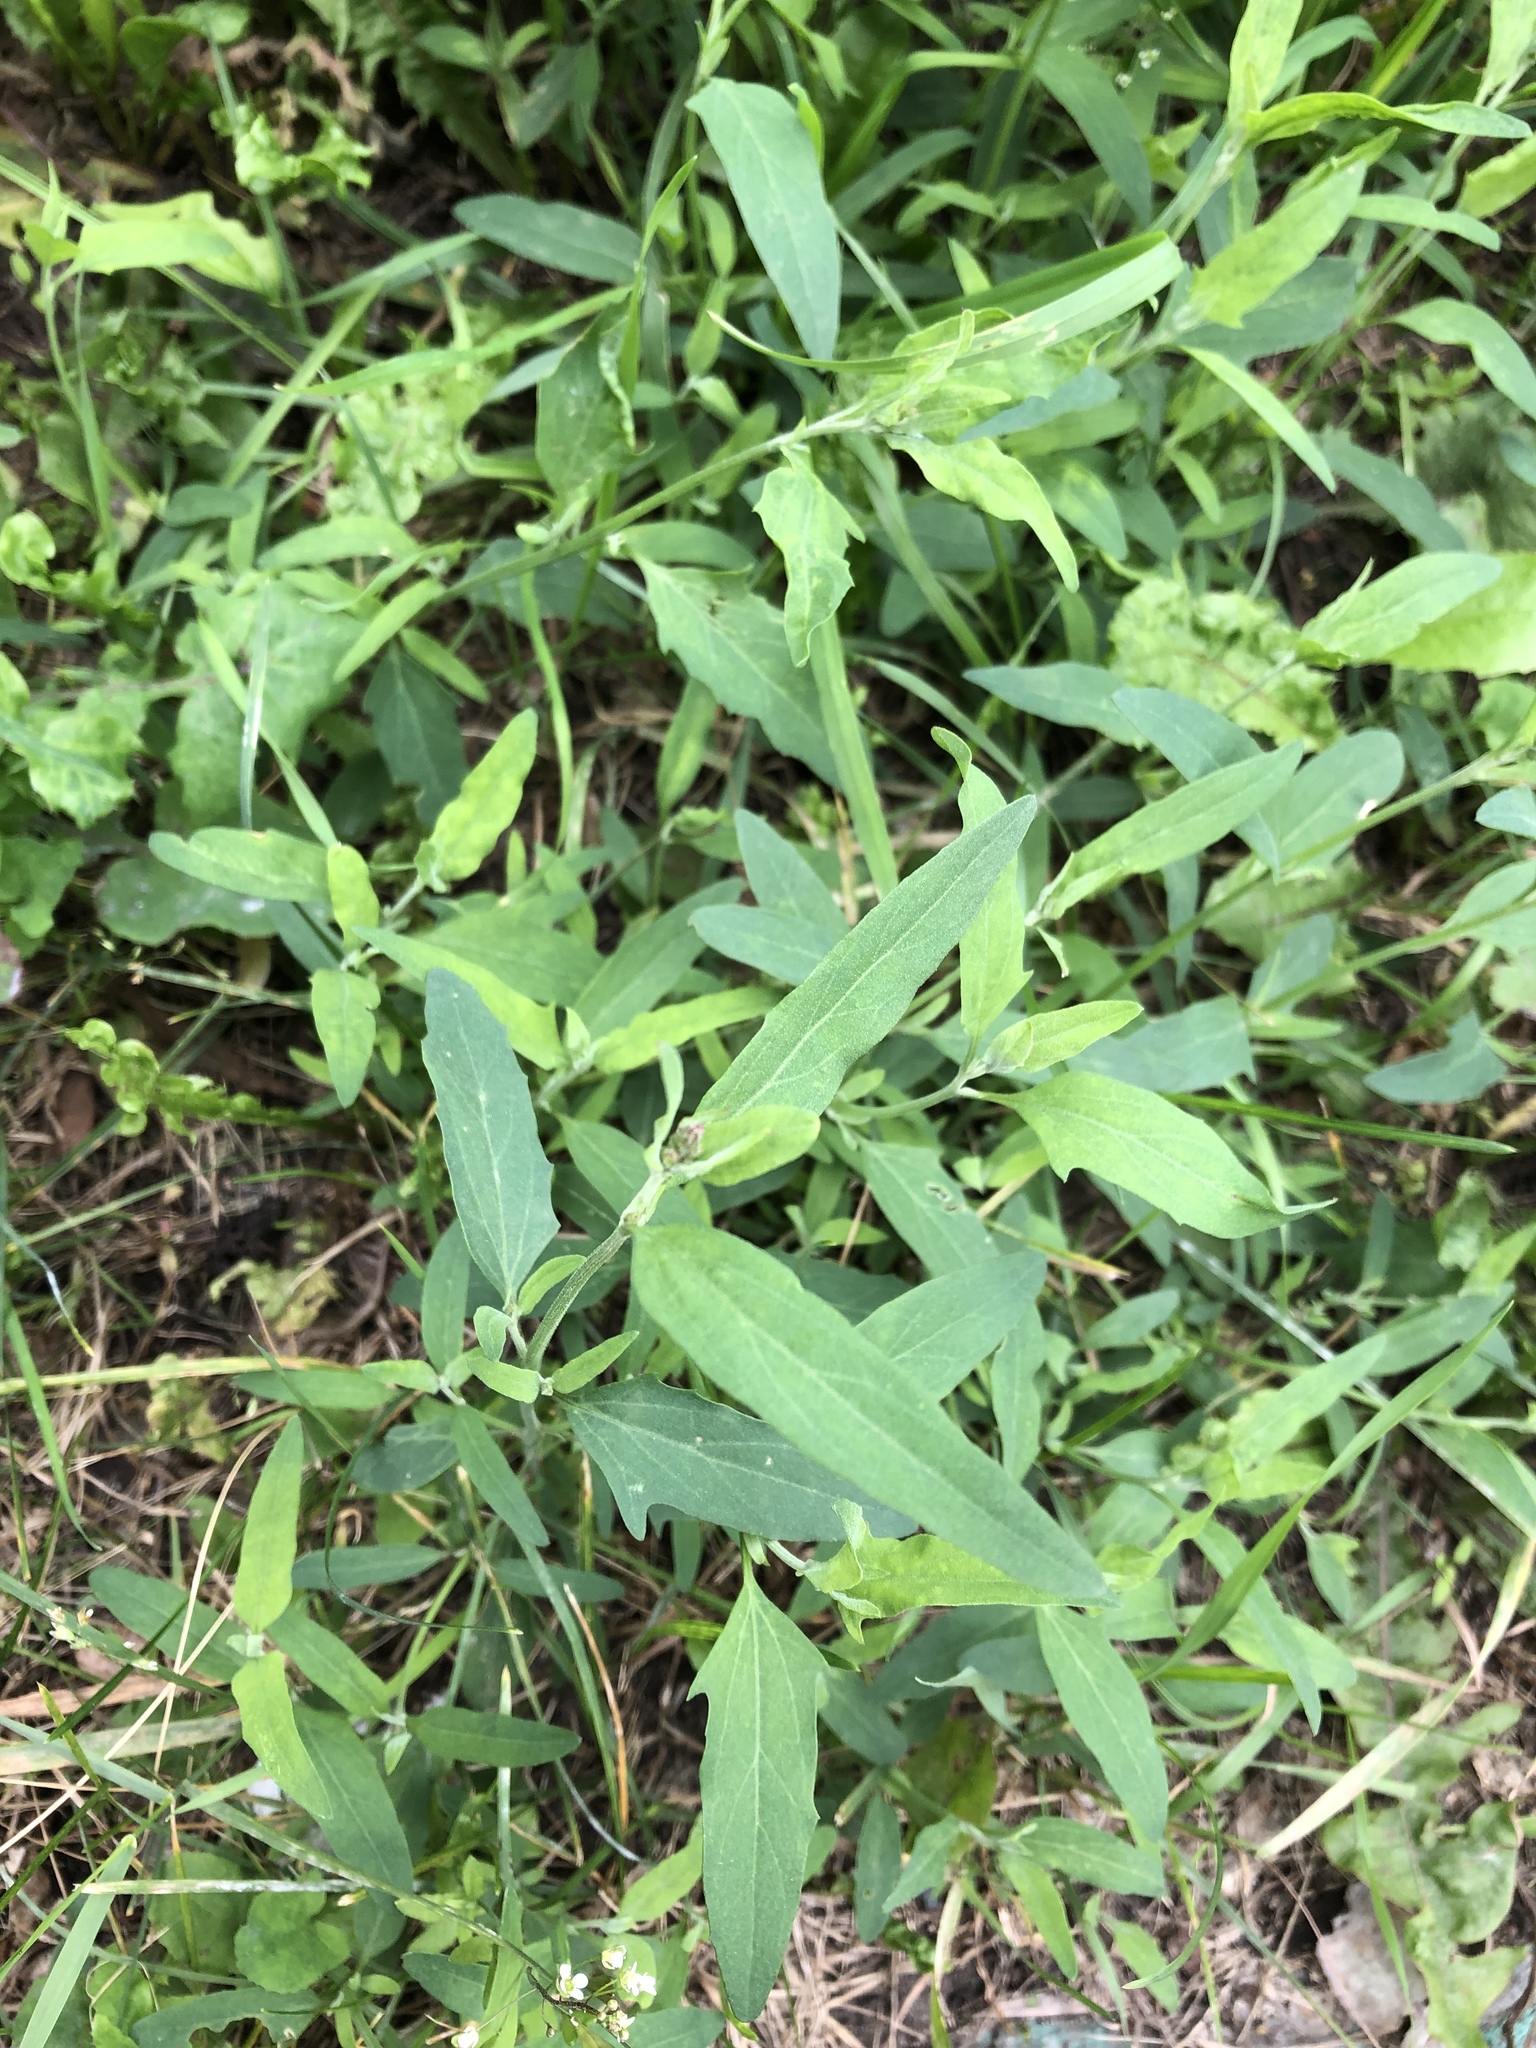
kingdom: Plantae
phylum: Tracheophyta
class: Magnoliopsida
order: Caryophyllales
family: Amaranthaceae
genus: Atriplex
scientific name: Atriplex patula
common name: Common orache
